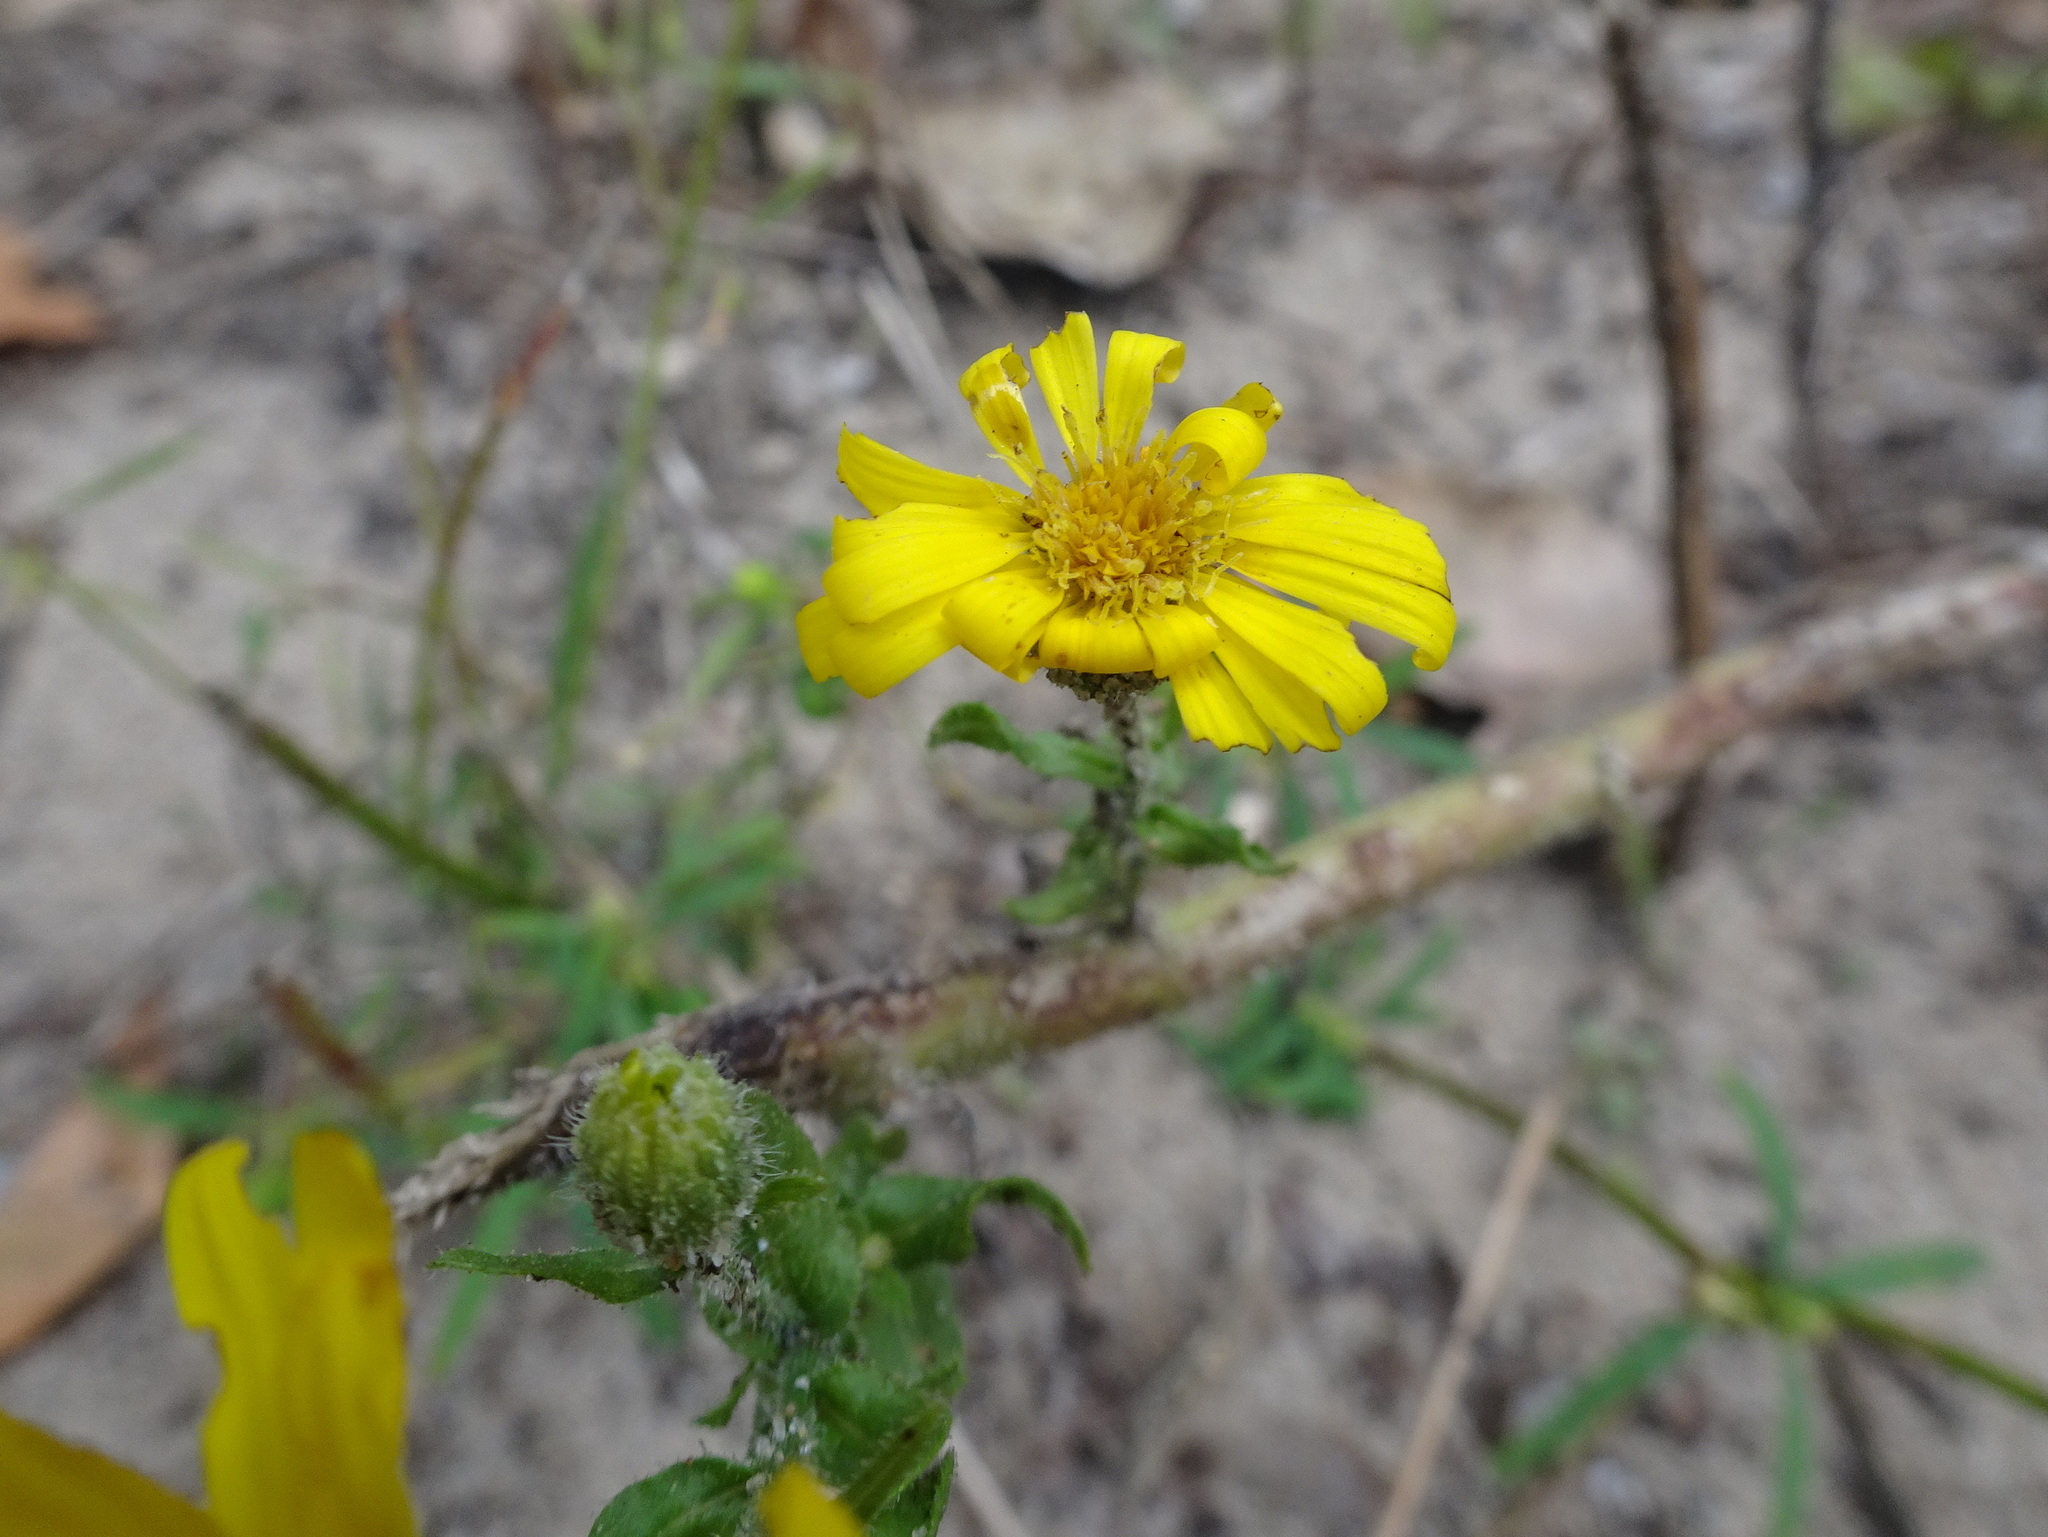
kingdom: Plantae
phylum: Tracheophyta
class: Magnoliopsida
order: Asterales
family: Asteraceae
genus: Heterotheca
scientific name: Heterotheca subaxillaris
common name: Camphorweed
